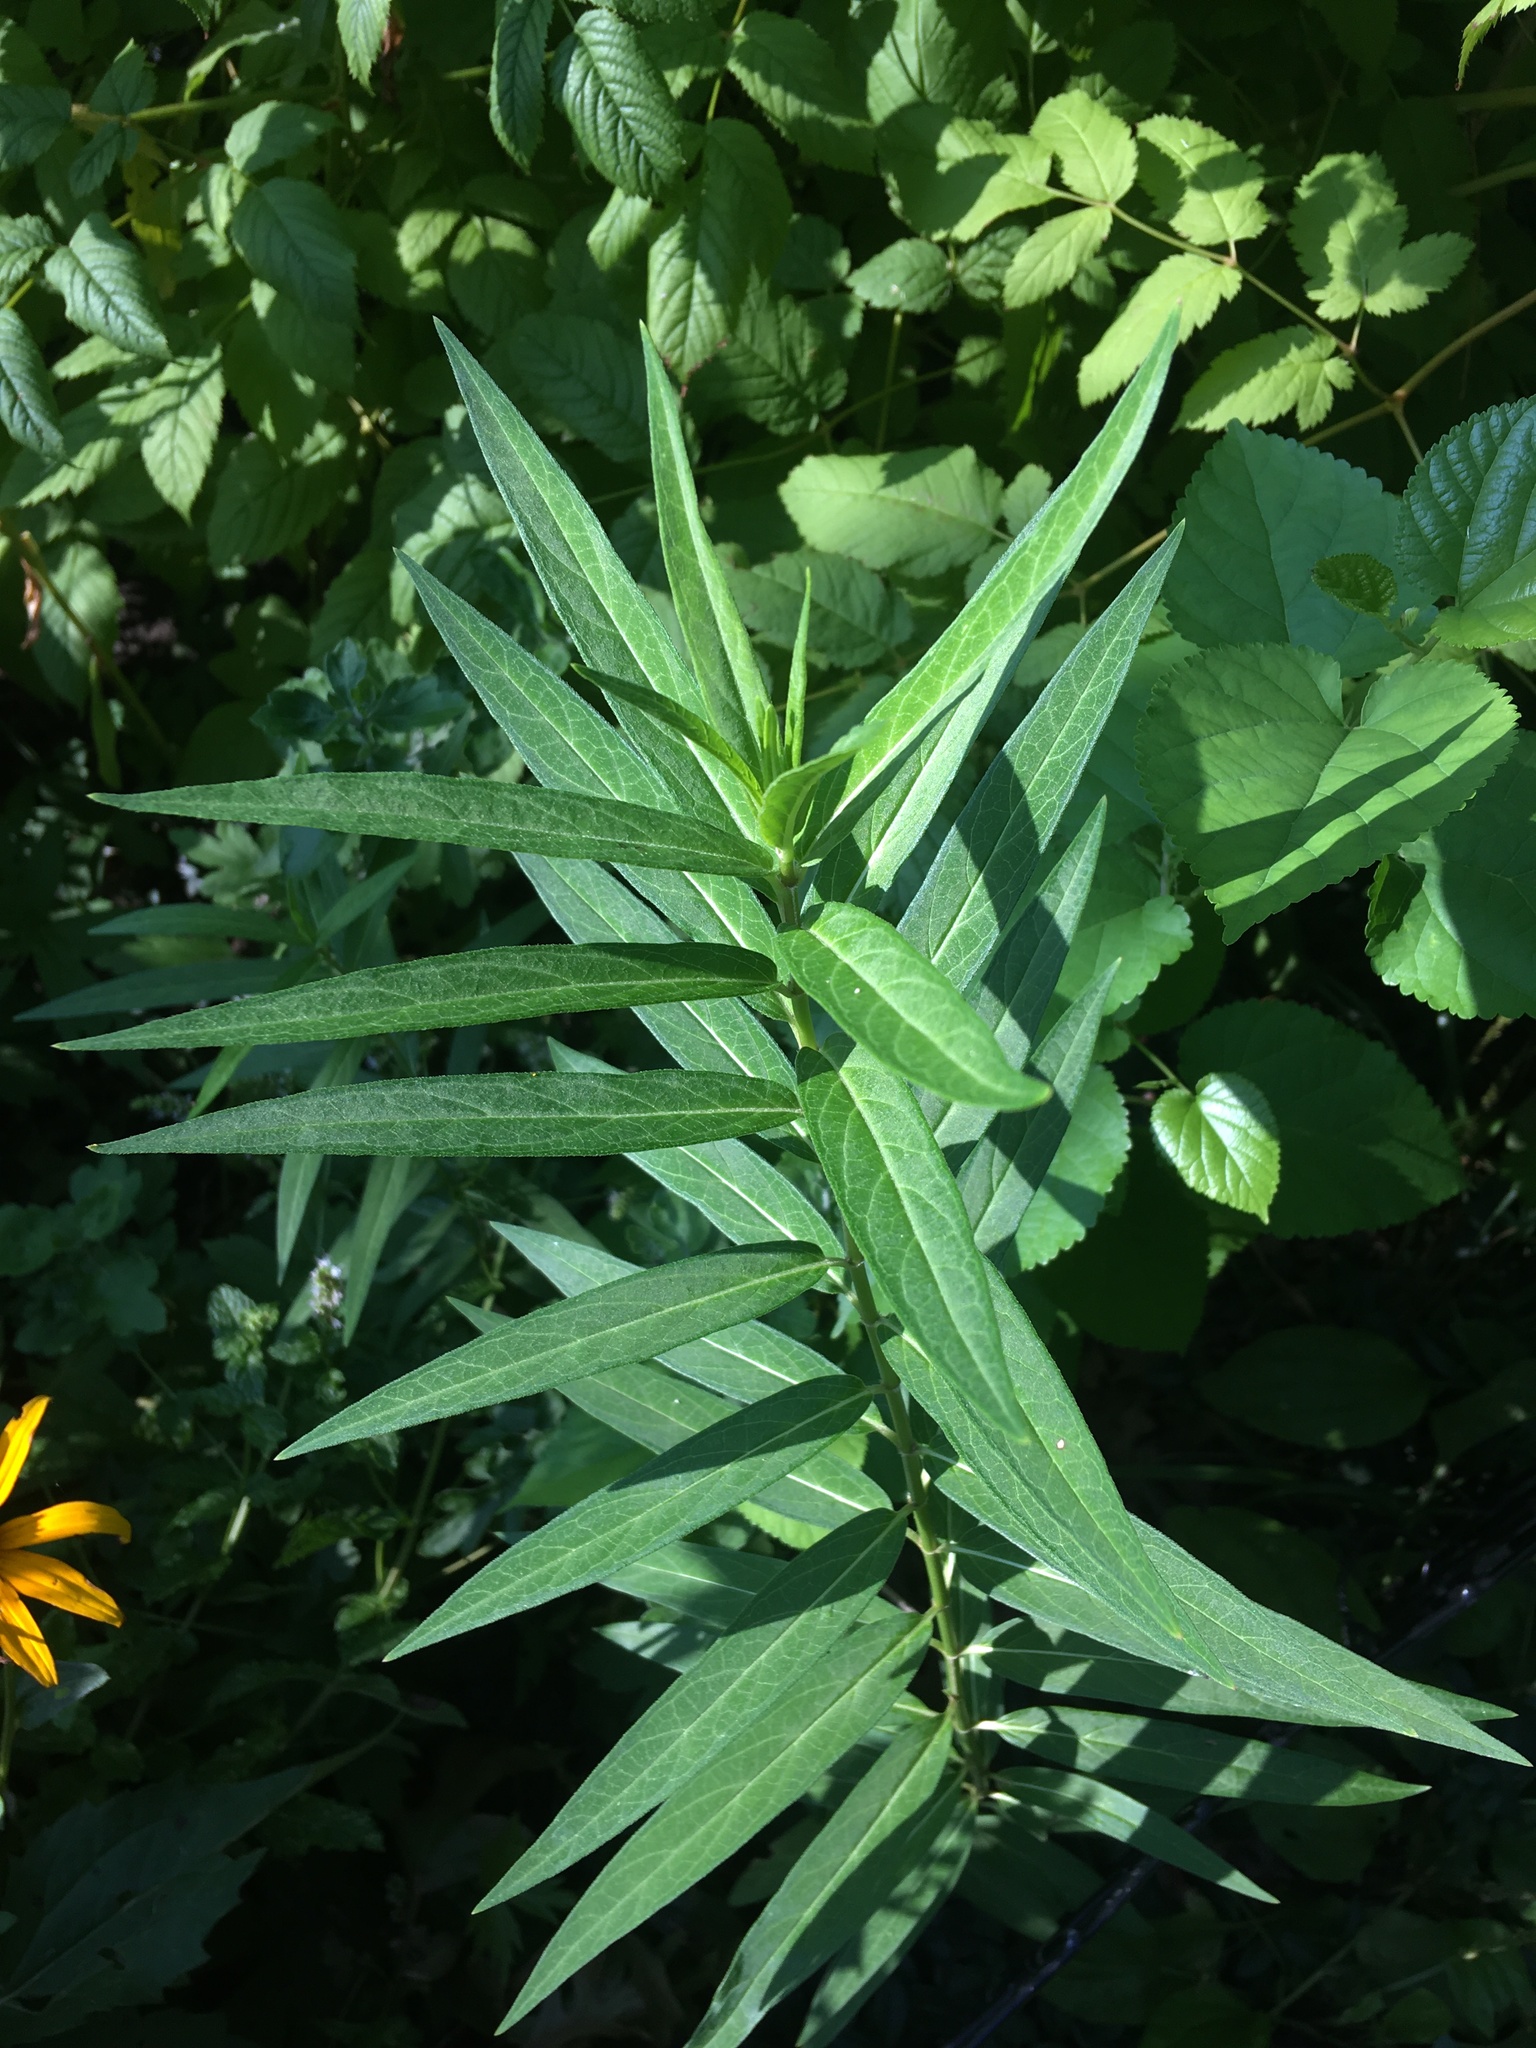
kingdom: Plantae
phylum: Tracheophyta
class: Magnoliopsida
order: Gentianales
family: Apocynaceae
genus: Asclepias
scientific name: Asclepias incarnata
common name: Swamp milkweed
